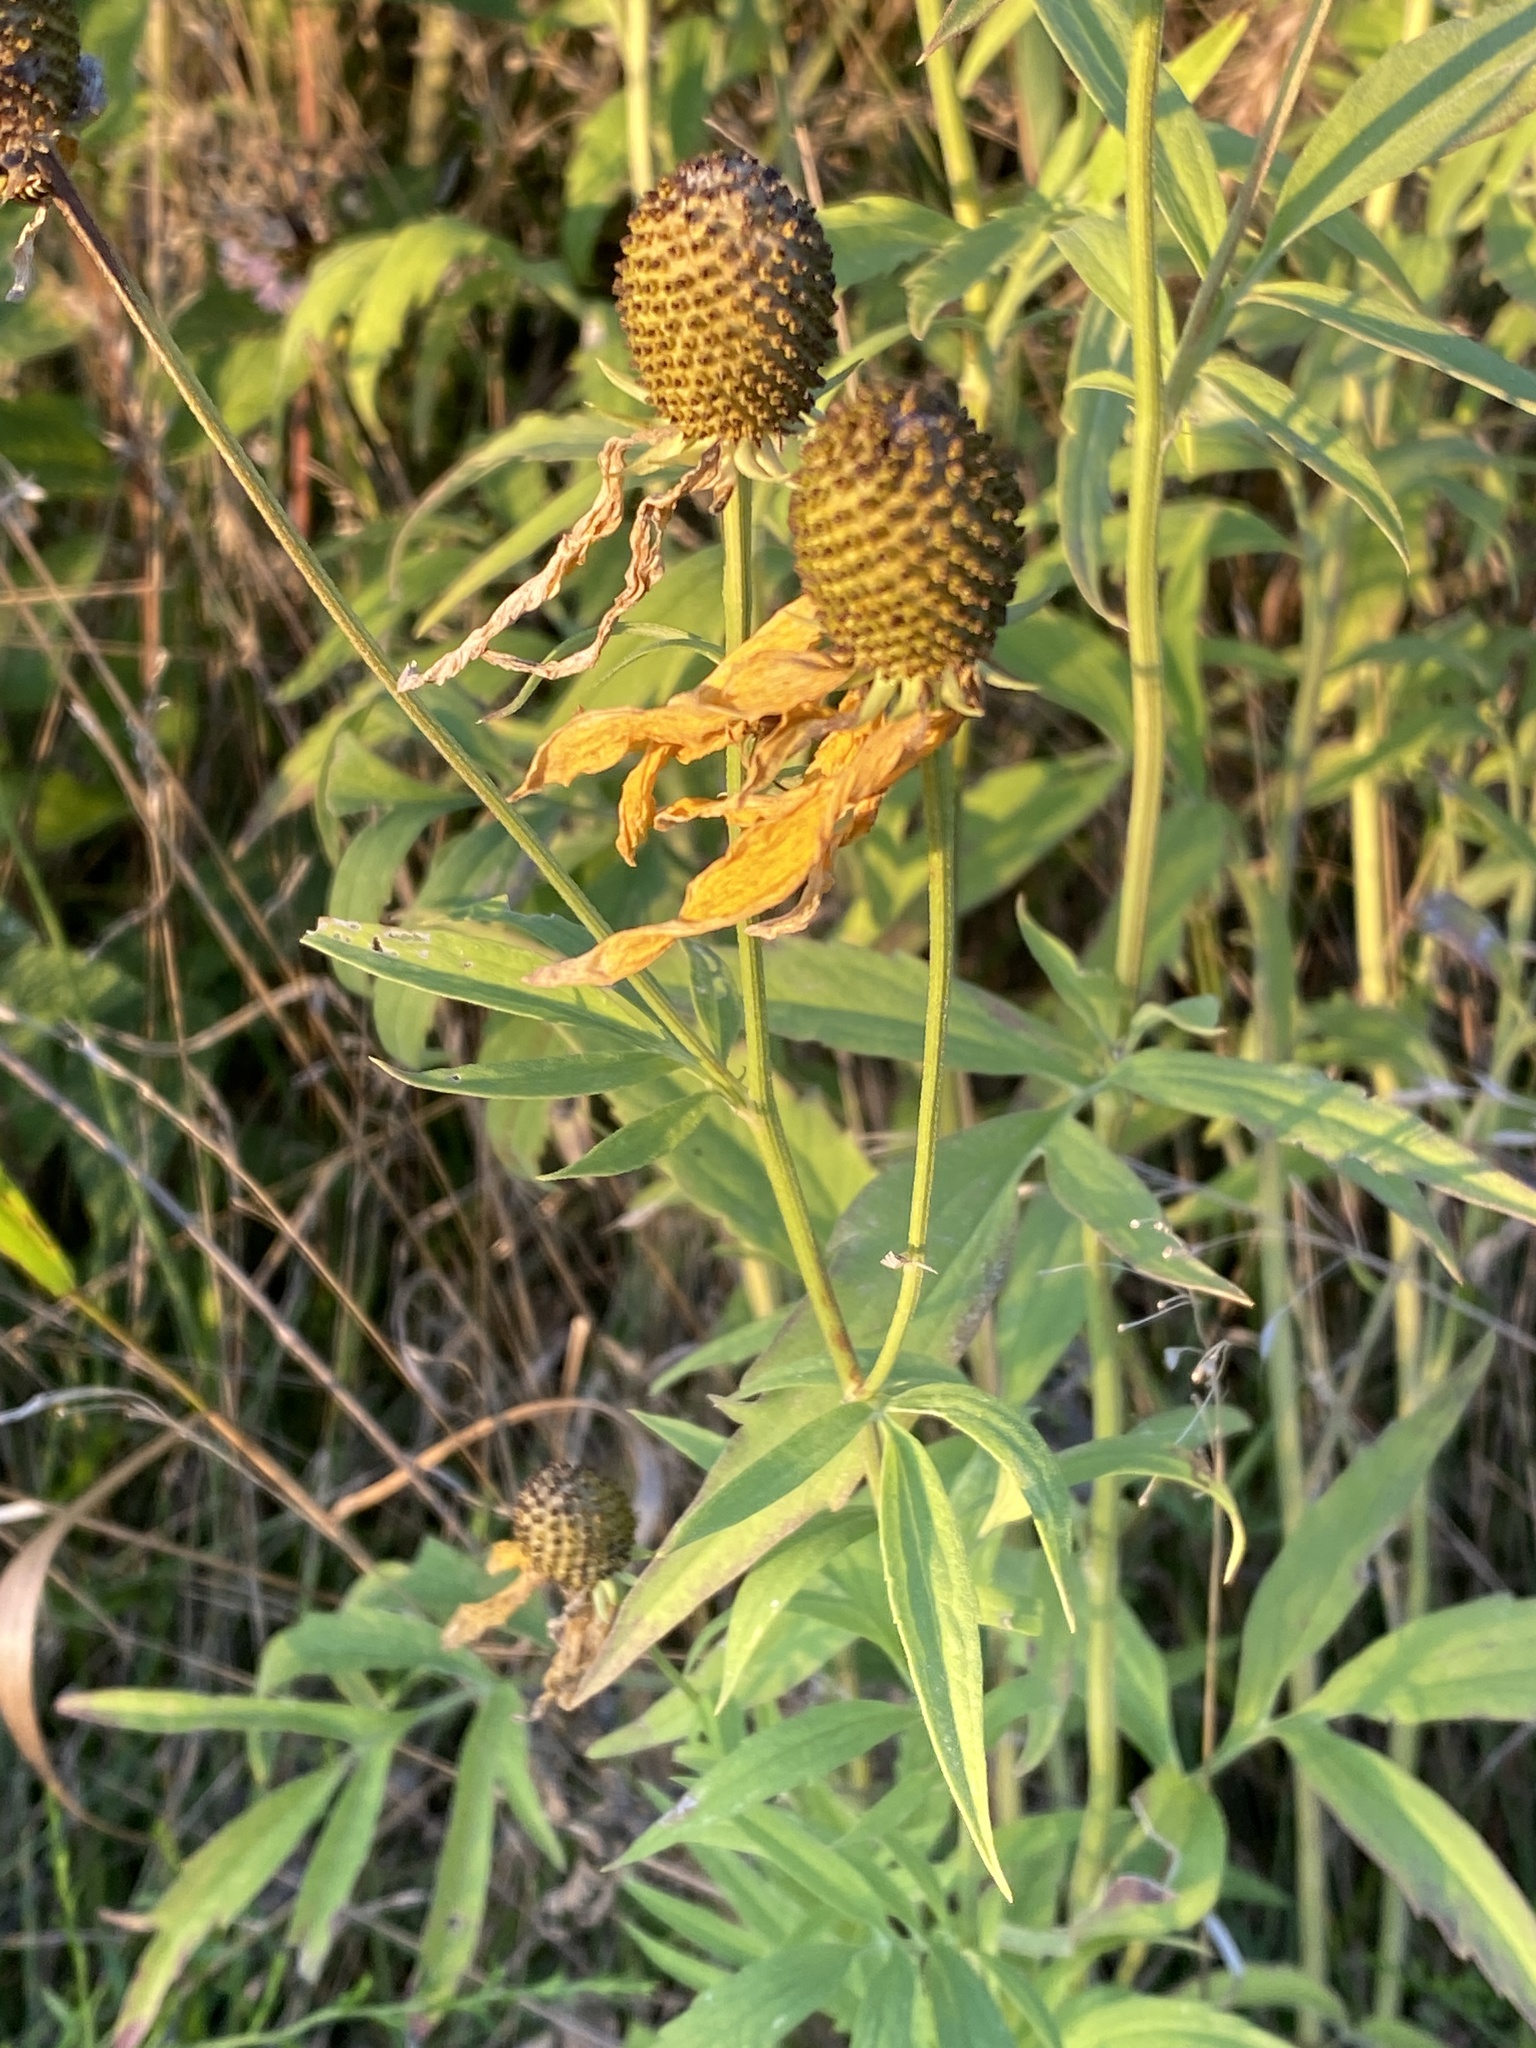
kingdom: Plantae
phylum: Tracheophyta
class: Magnoliopsida
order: Asterales
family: Asteraceae
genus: Ratibida
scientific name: Ratibida pinnata
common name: Drooping prairie-coneflower
